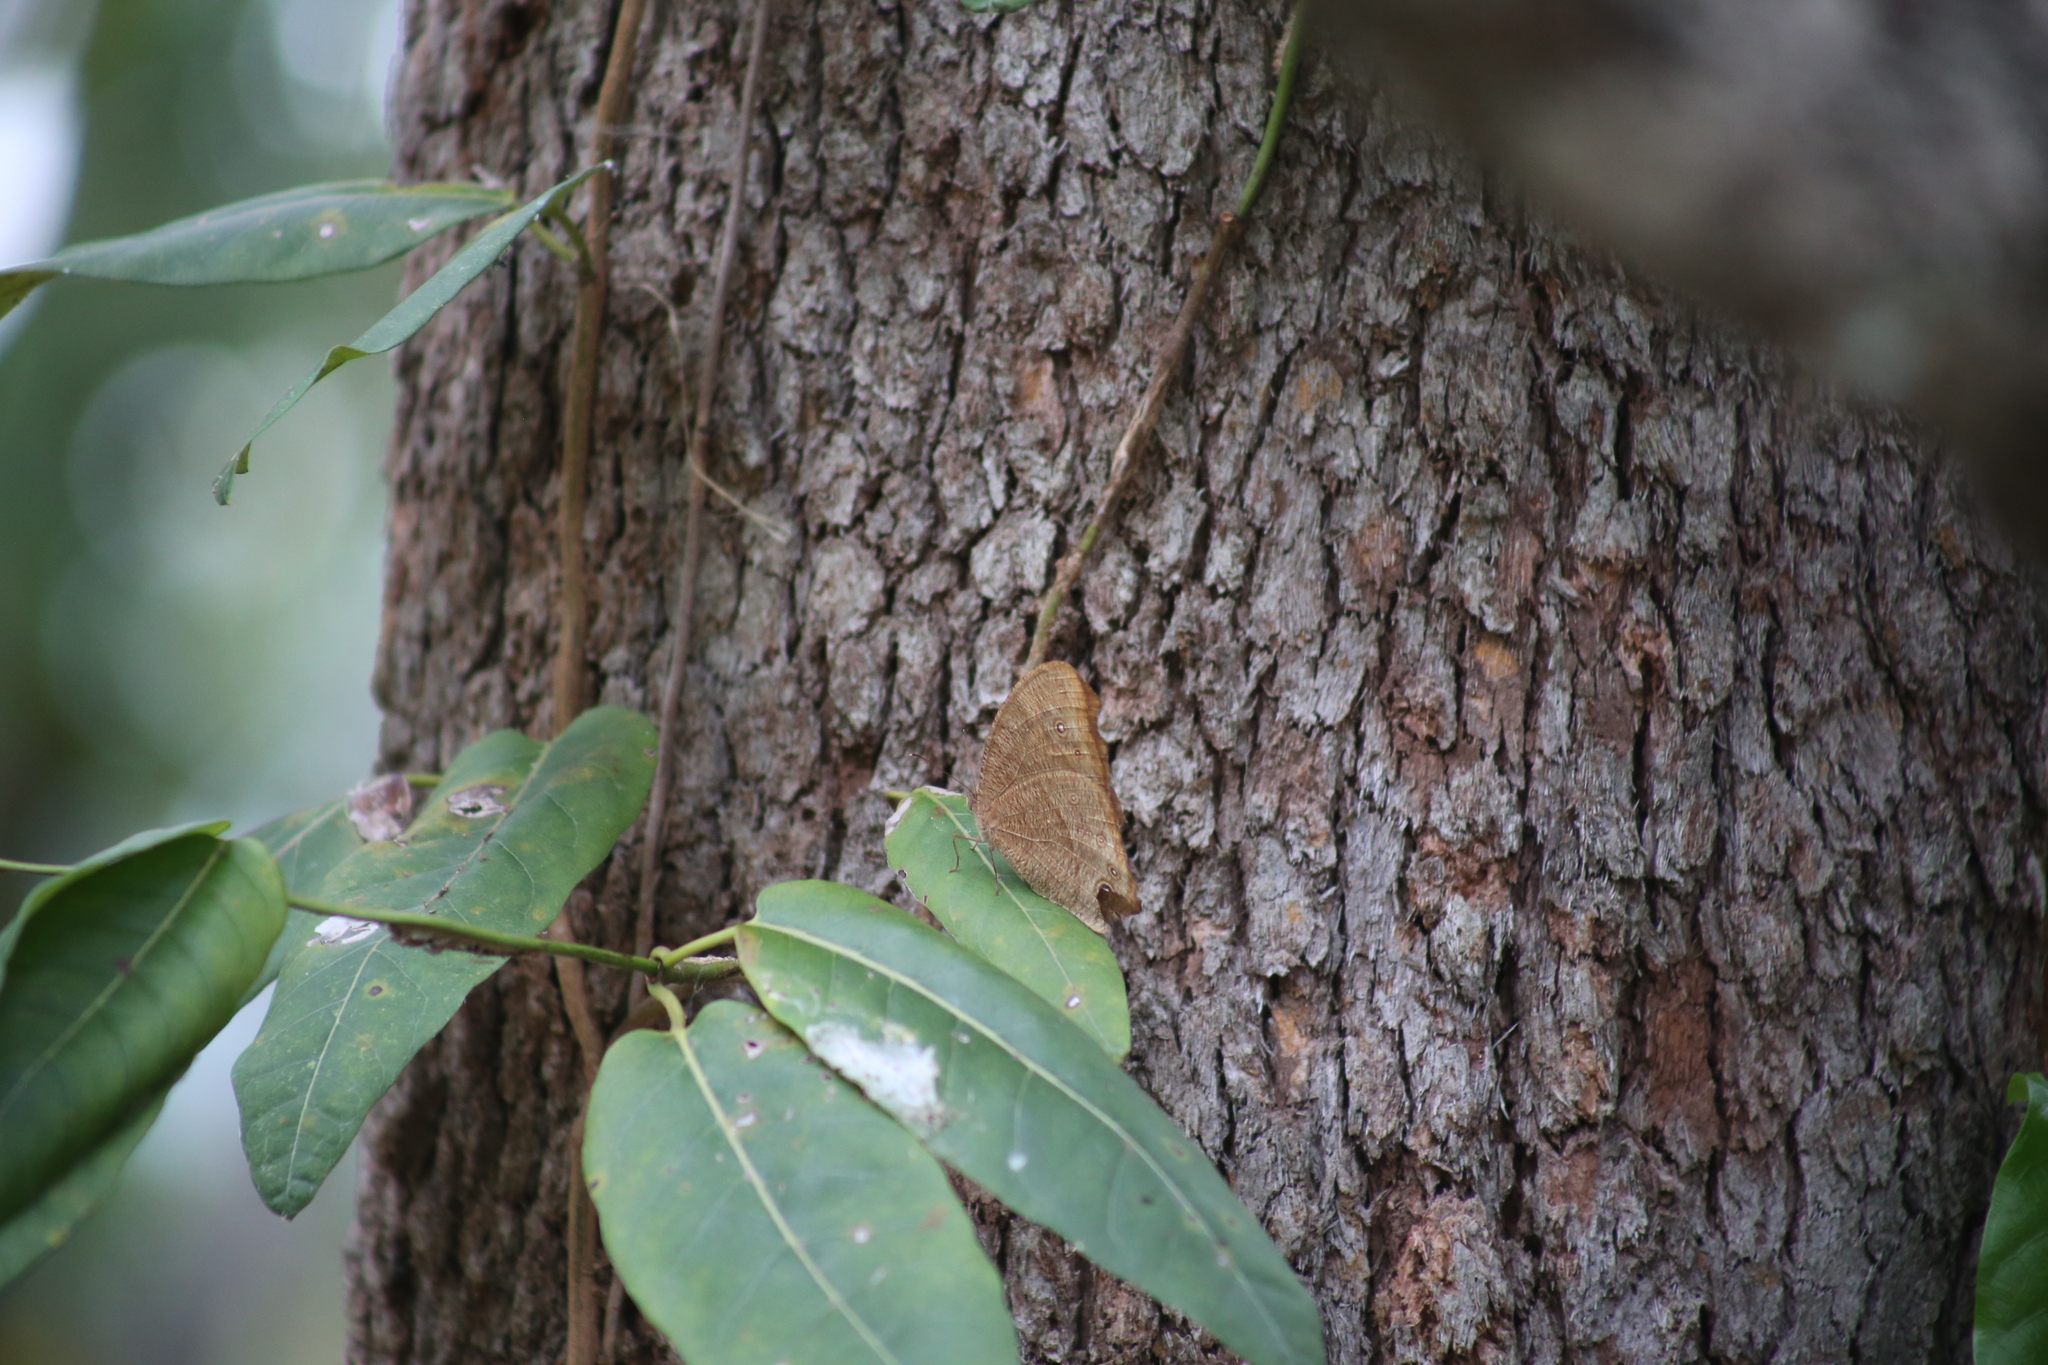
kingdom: Animalia
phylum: Arthropoda
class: Insecta
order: Lepidoptera
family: Nymphalidae
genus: Melanitis
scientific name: Melanitis leda
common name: Twilight brown
